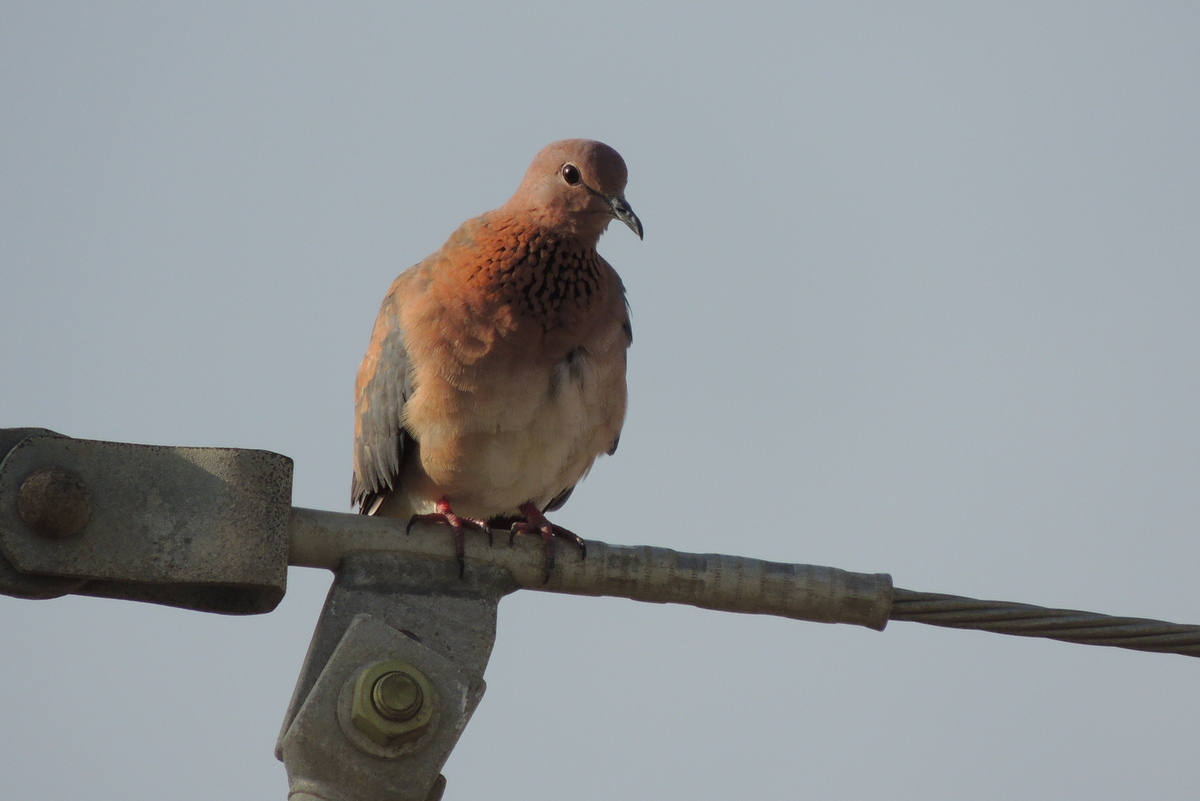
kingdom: Animalia
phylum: Chordata
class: Aves
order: Columbiformes
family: Columbidae
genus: Spilopelia
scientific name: Spilopelia senegalensis
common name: Laughing dove
